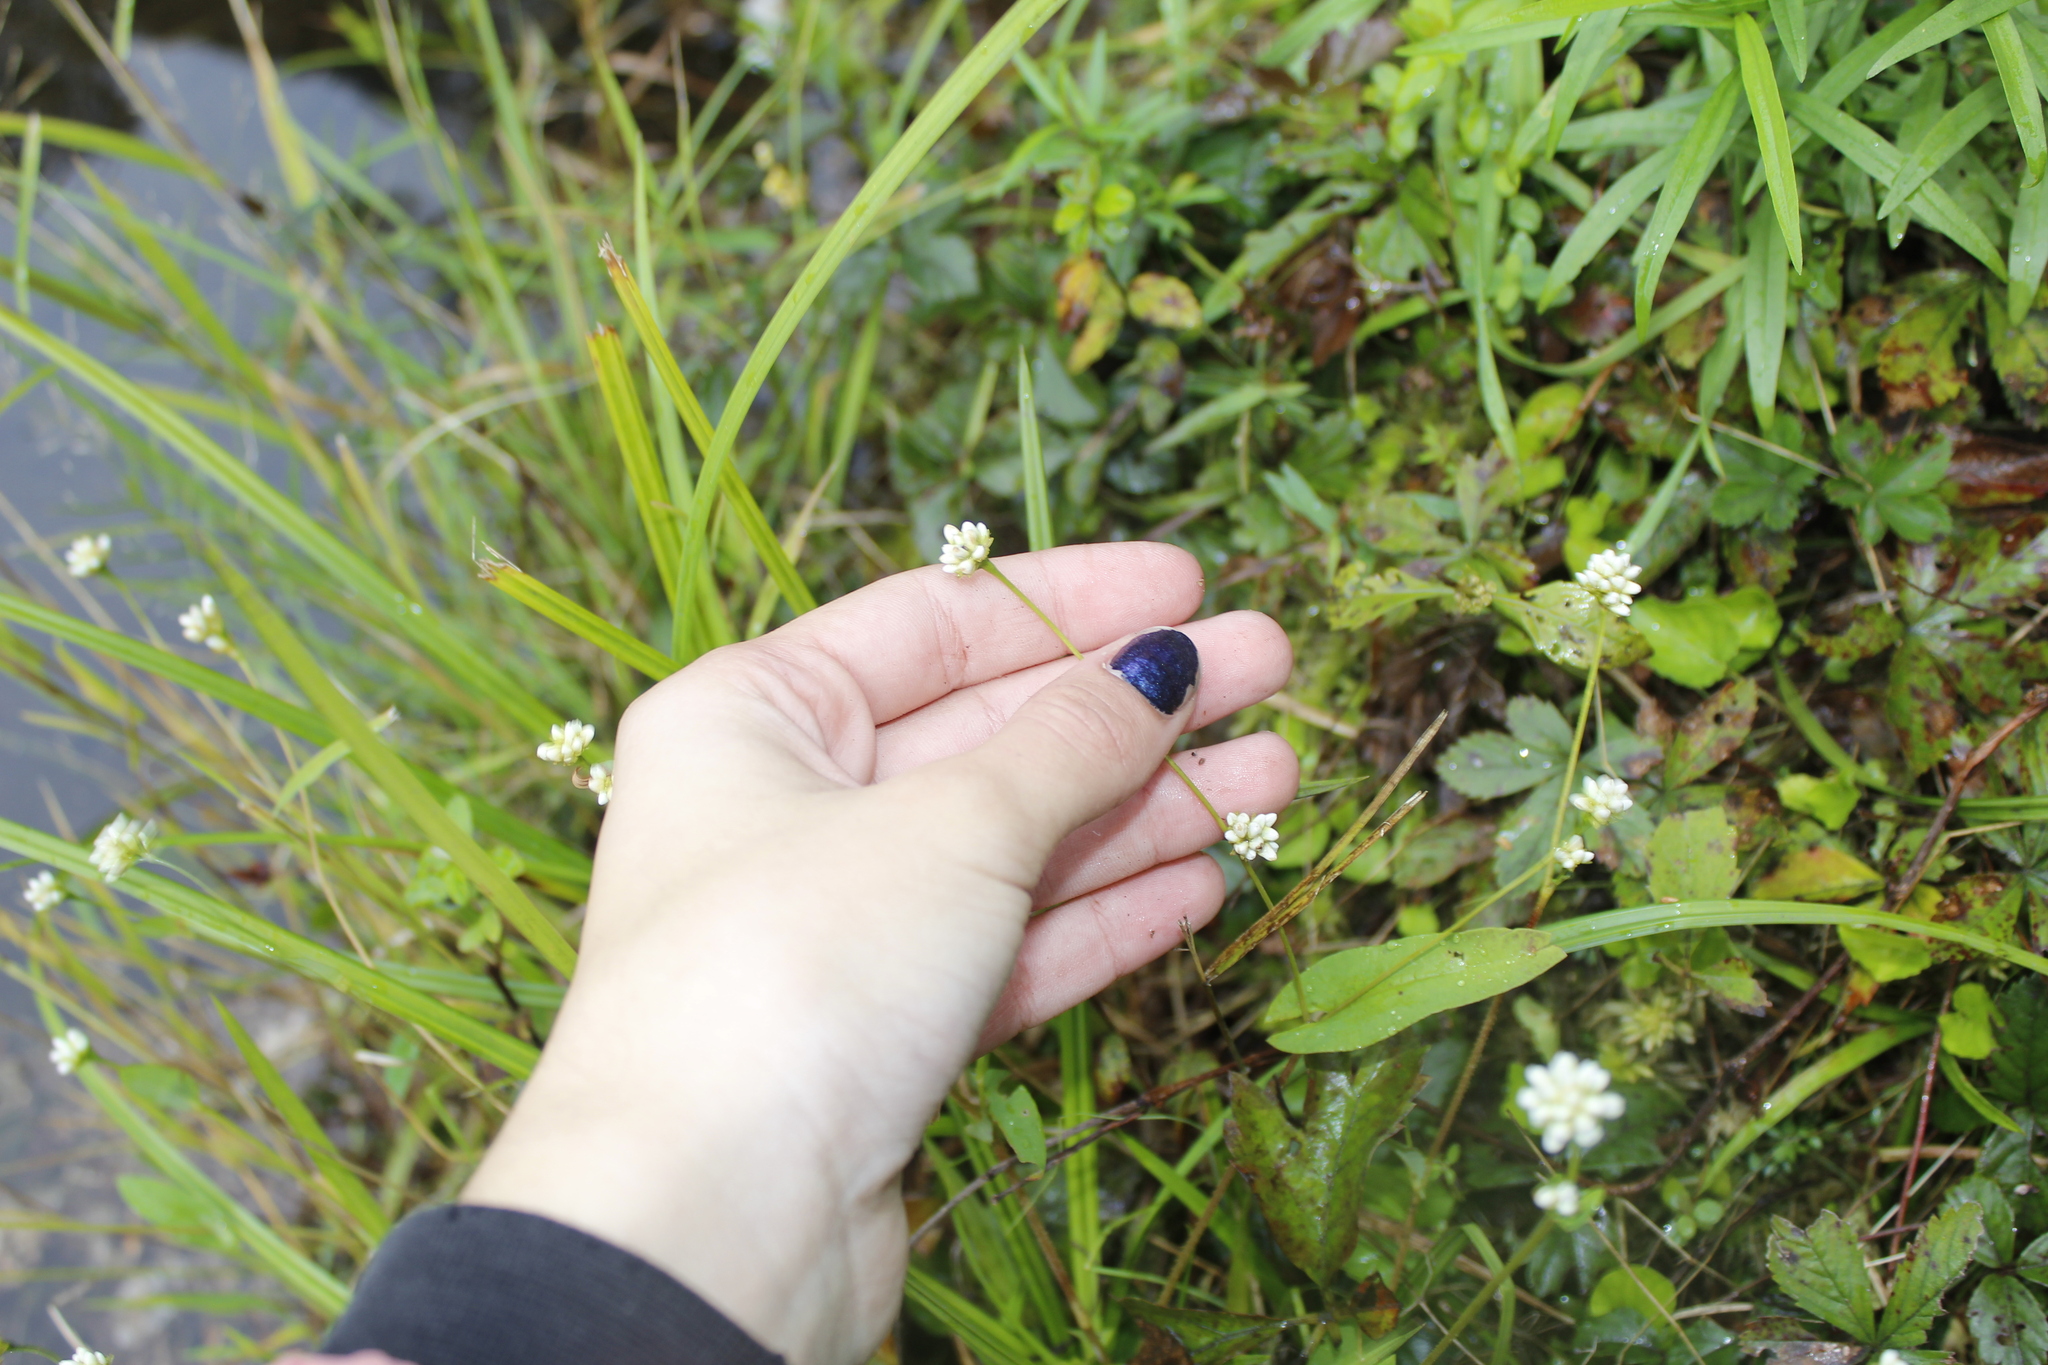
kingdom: Plantae
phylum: Tracheophyta
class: Magnoliopsida
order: Caryophyllales
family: Polygonaceae
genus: Persicaria
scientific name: Persicaria sagittata
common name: American tearthumb
